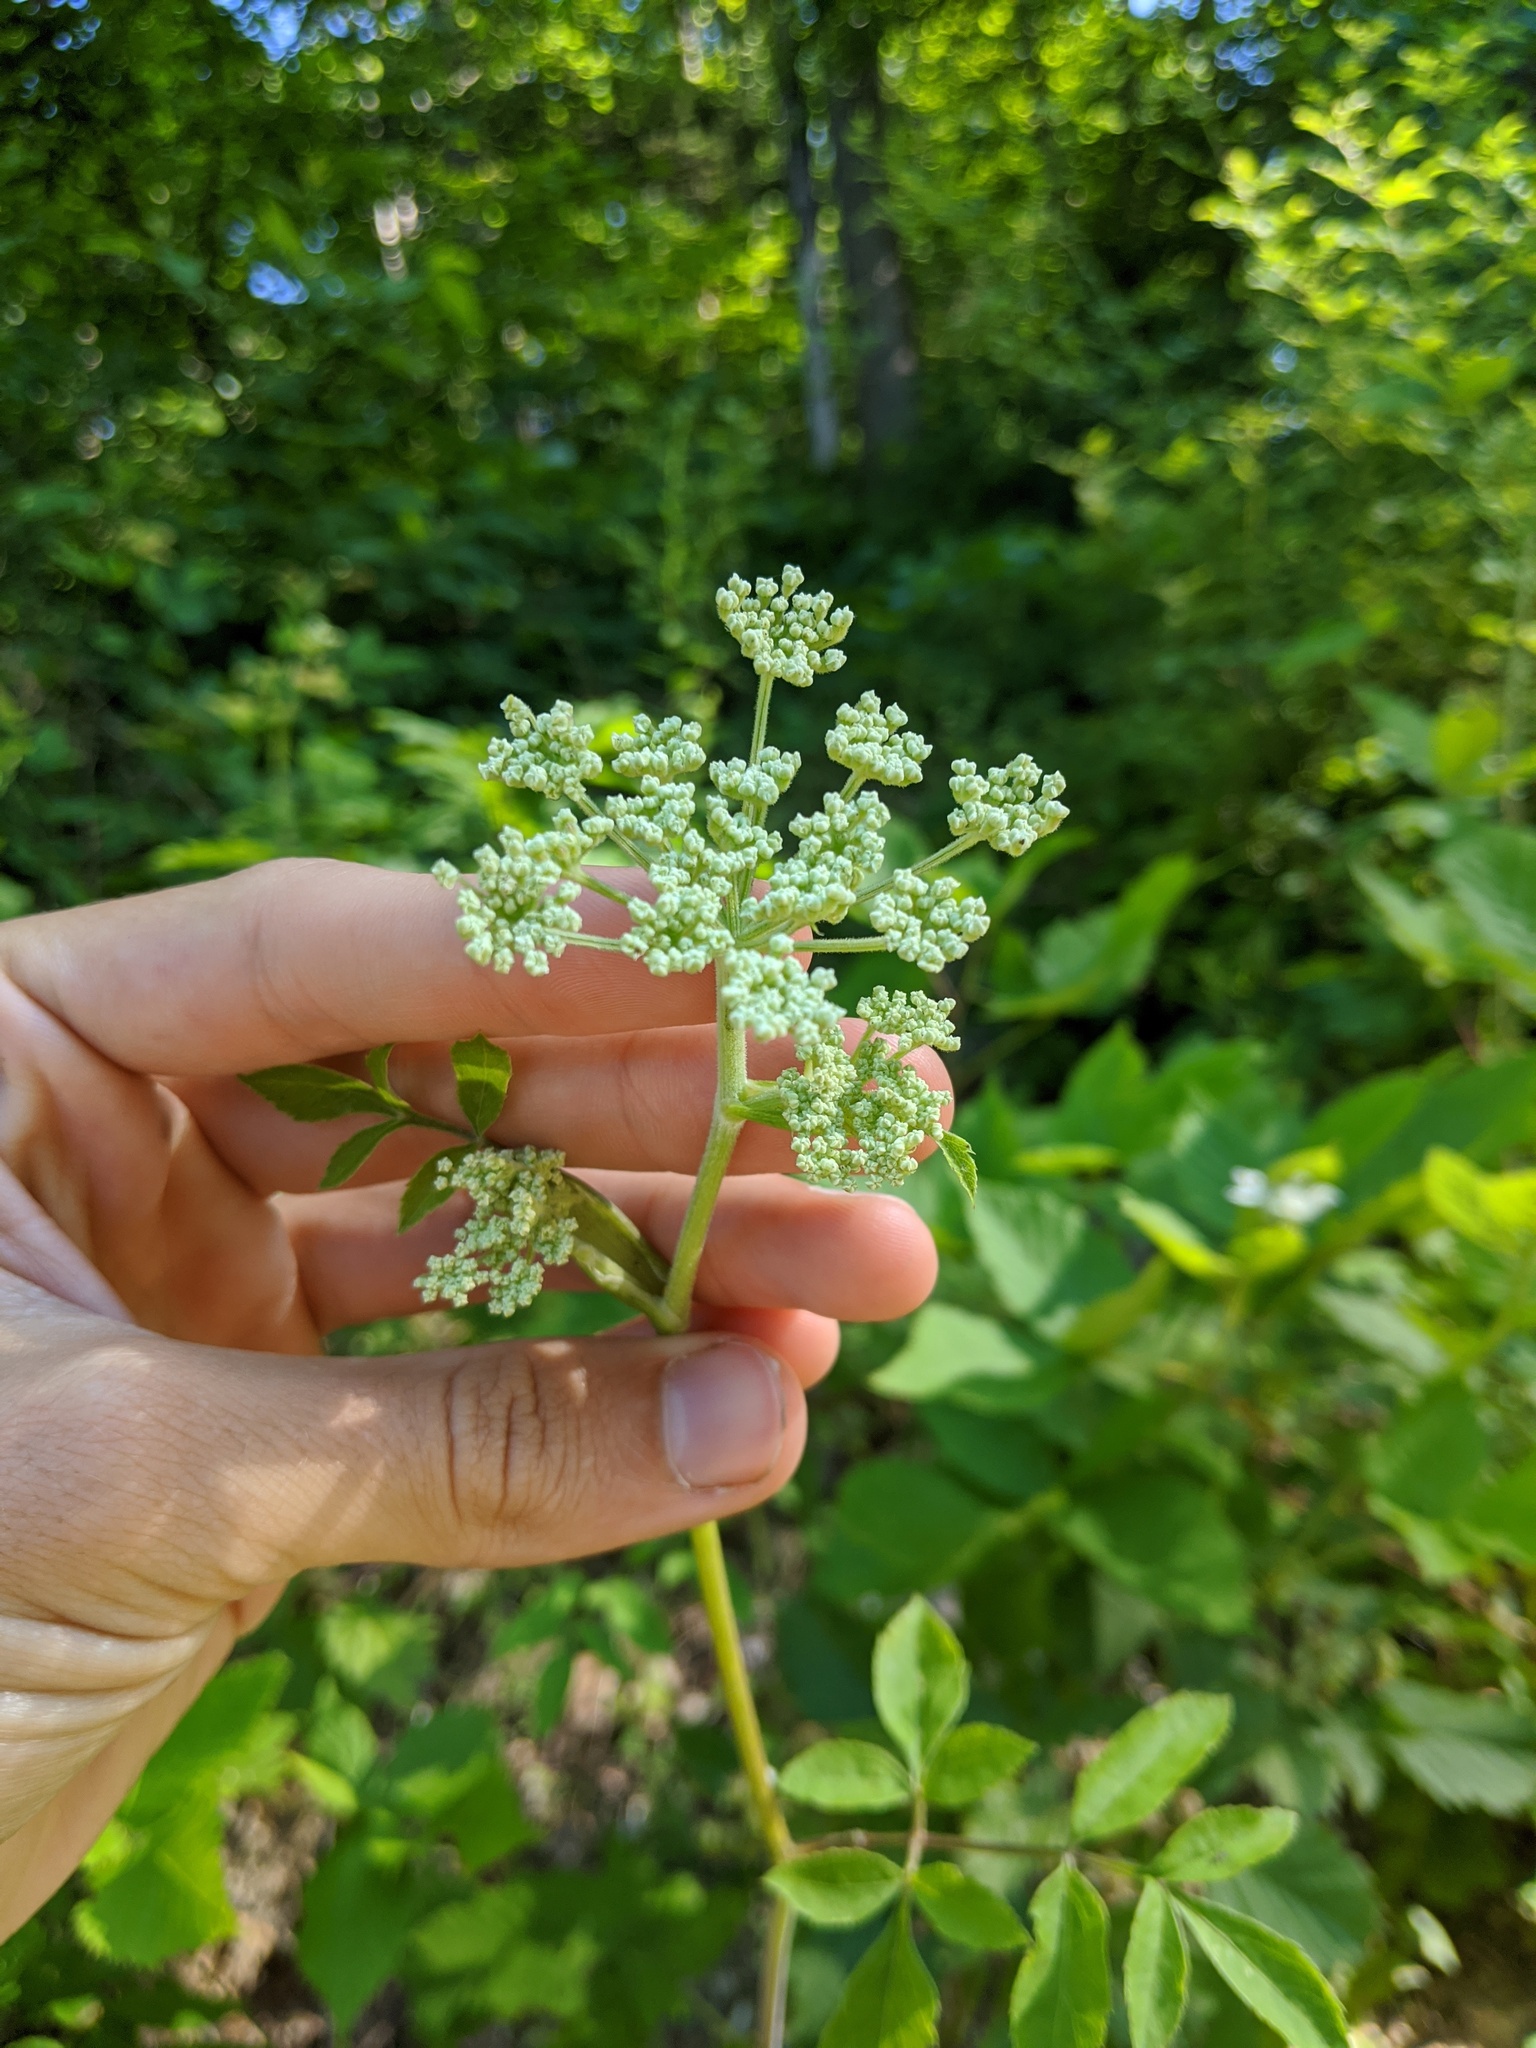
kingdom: Plantae
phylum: Tracheophyta
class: Magnoliopsida
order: Apiales
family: Apiaceae
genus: Angelica
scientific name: Angelica venenosa
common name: Hairy angelica
